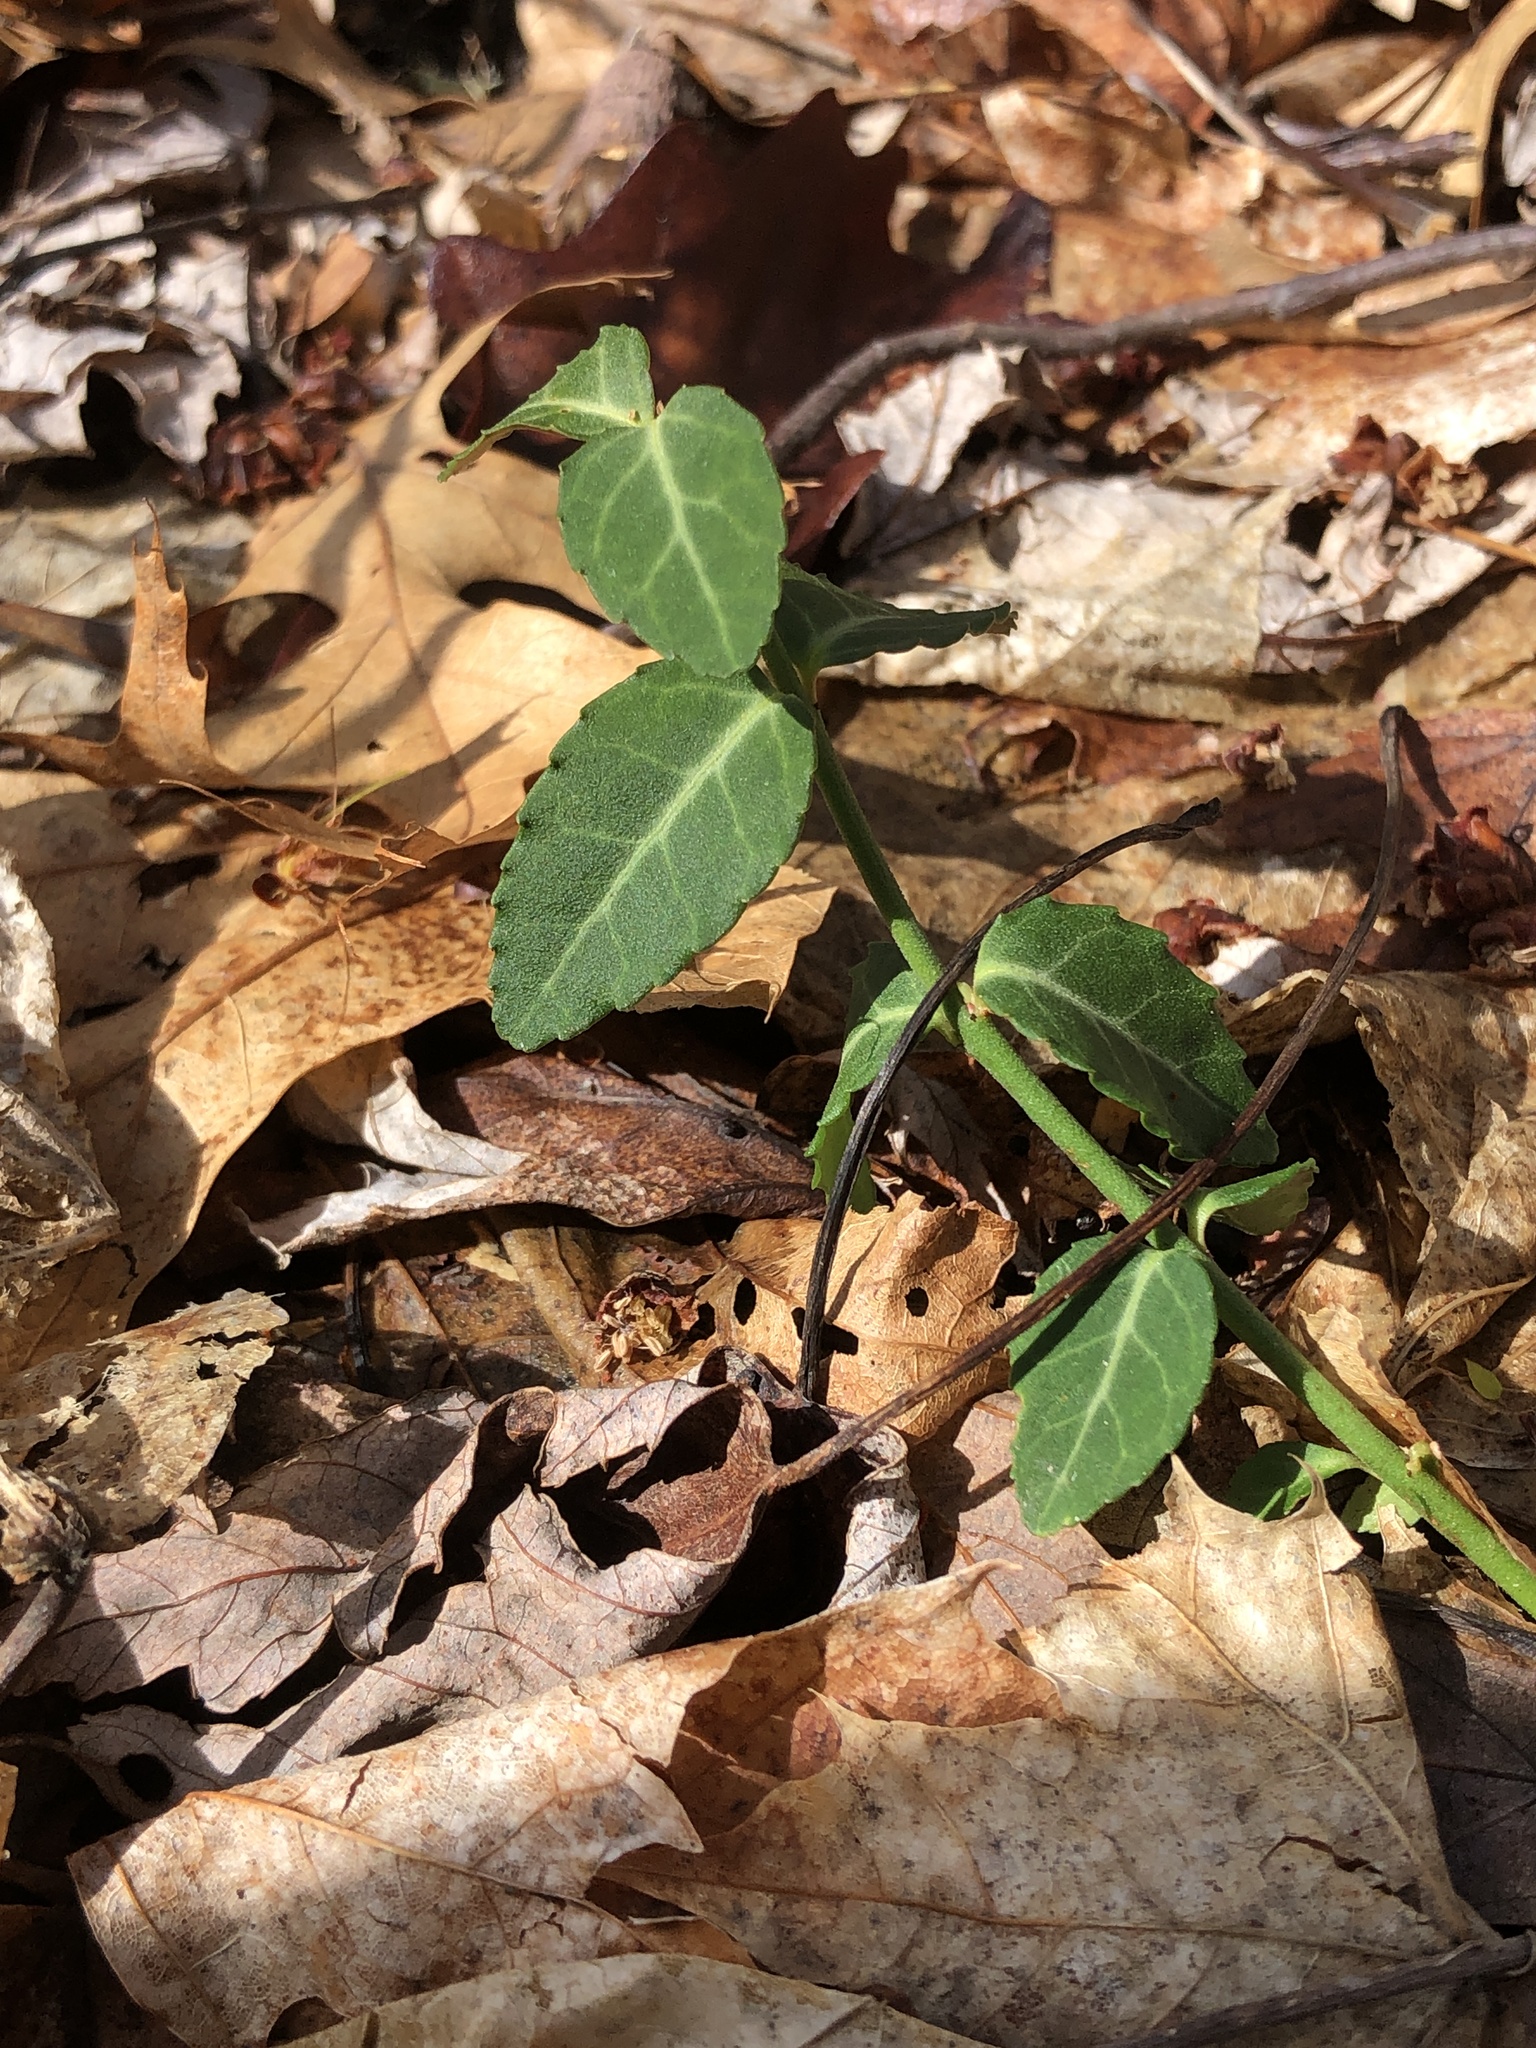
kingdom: Plantae
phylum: Tracheophyta
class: Magnoliopsida
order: Celastrales
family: Celastraceae
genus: Euonymus
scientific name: Euonymus fortunei
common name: Climbing euonymus
